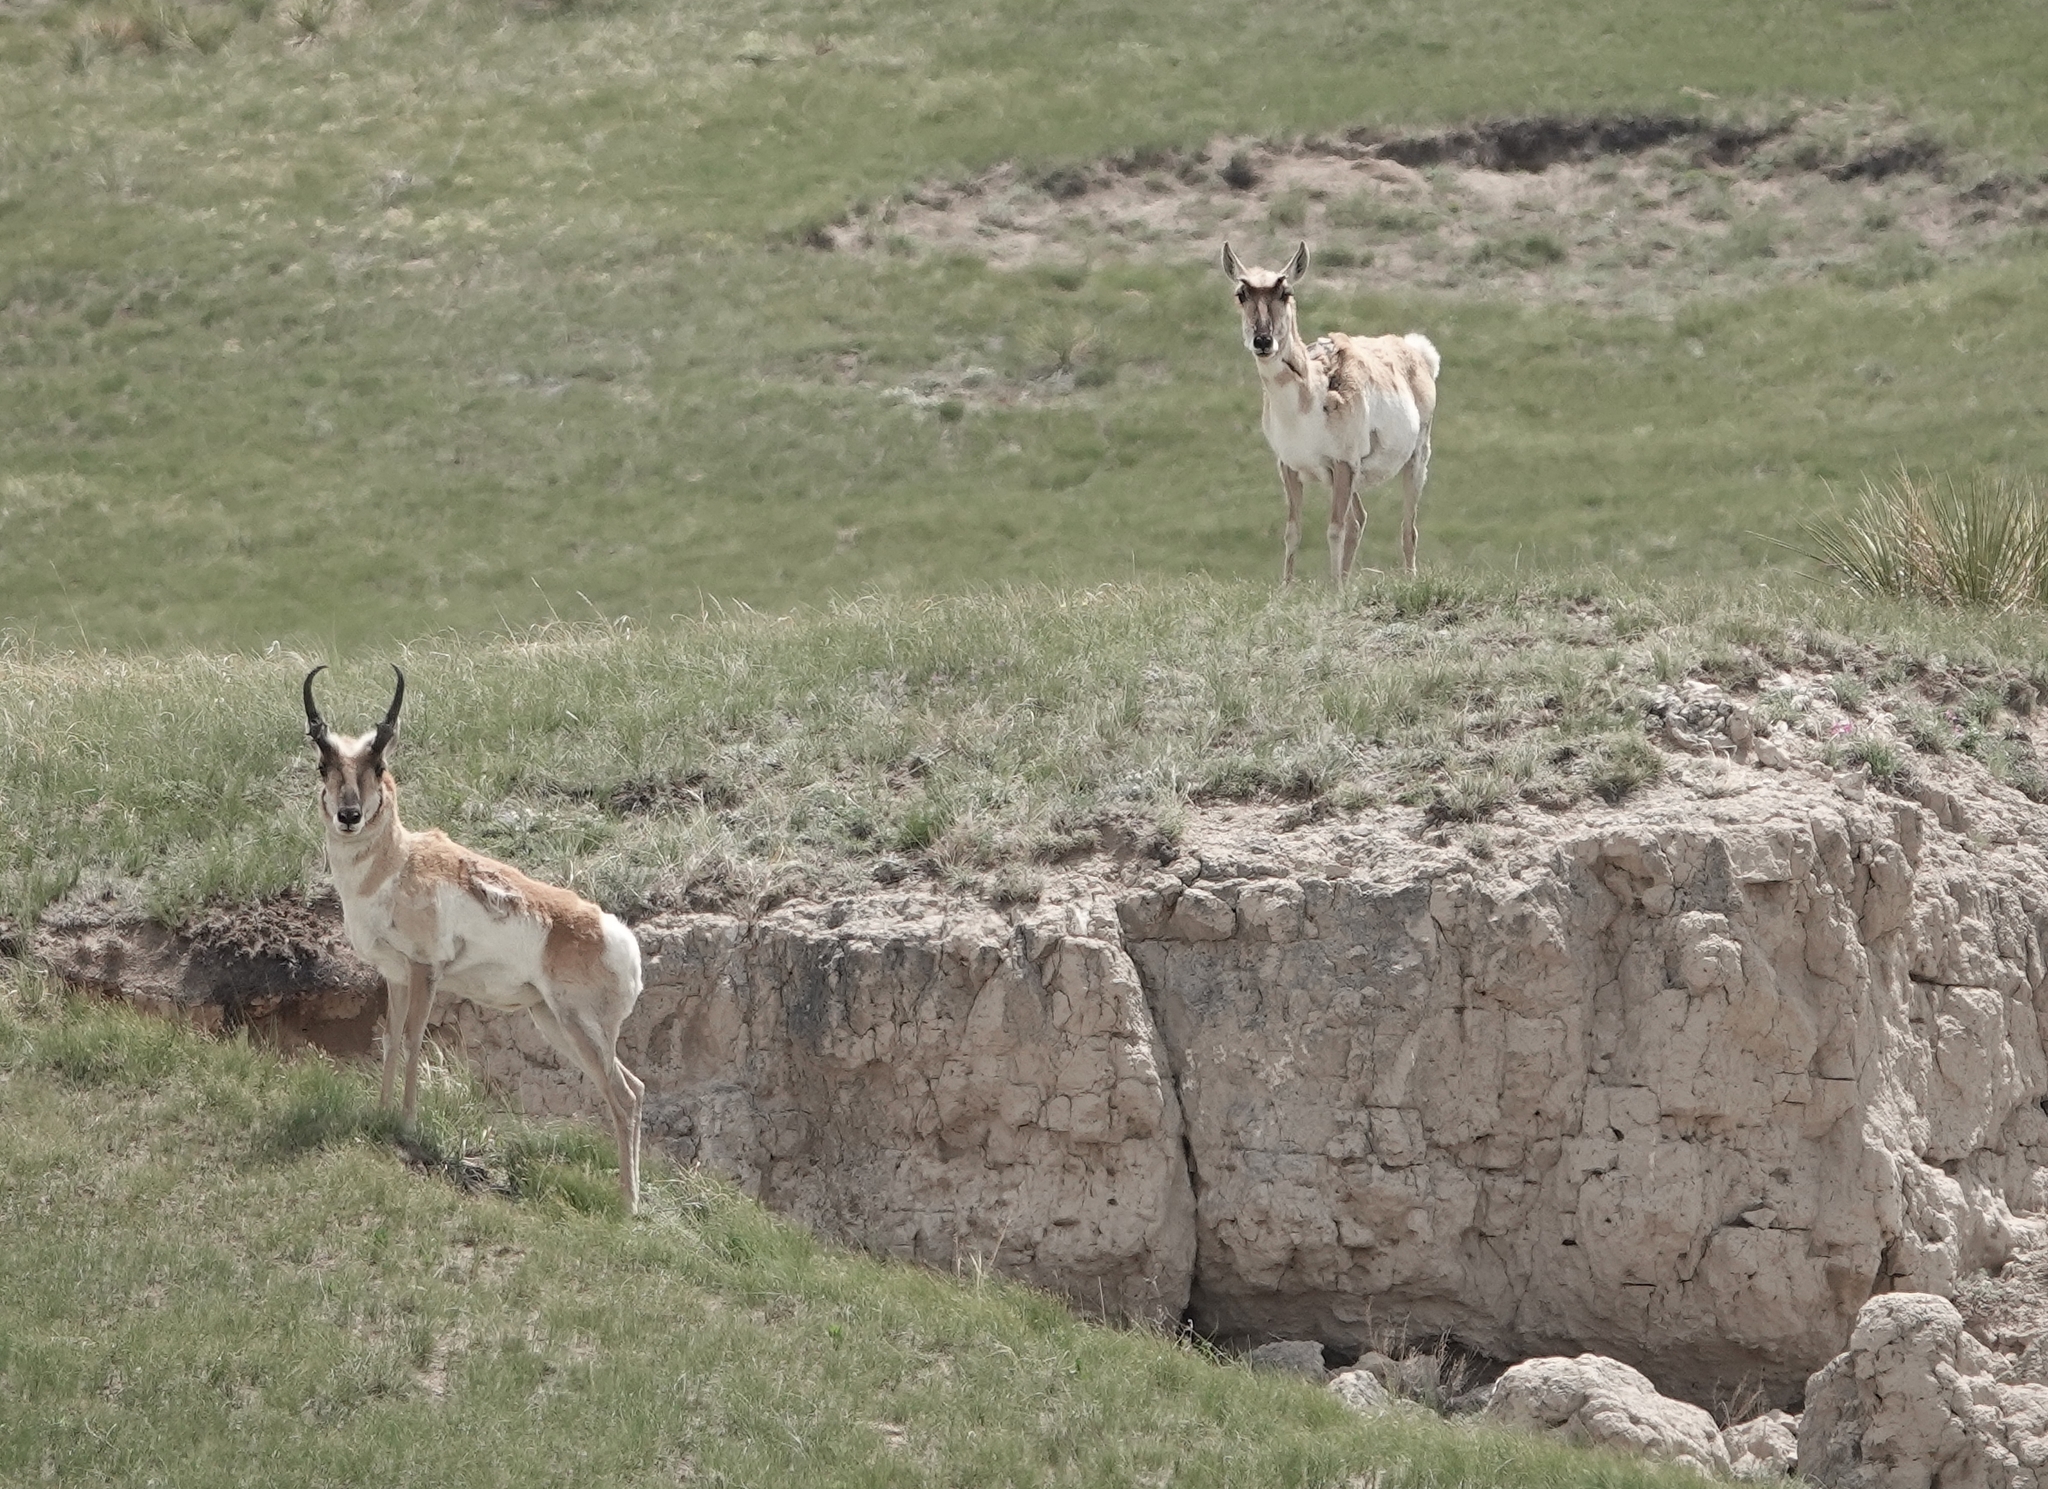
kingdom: Animalia
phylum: Chordata
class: Mammalia
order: Artiodactyla
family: Antilocapridae
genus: Antilocapra
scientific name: Antilocapra americana
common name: Pronghorn
